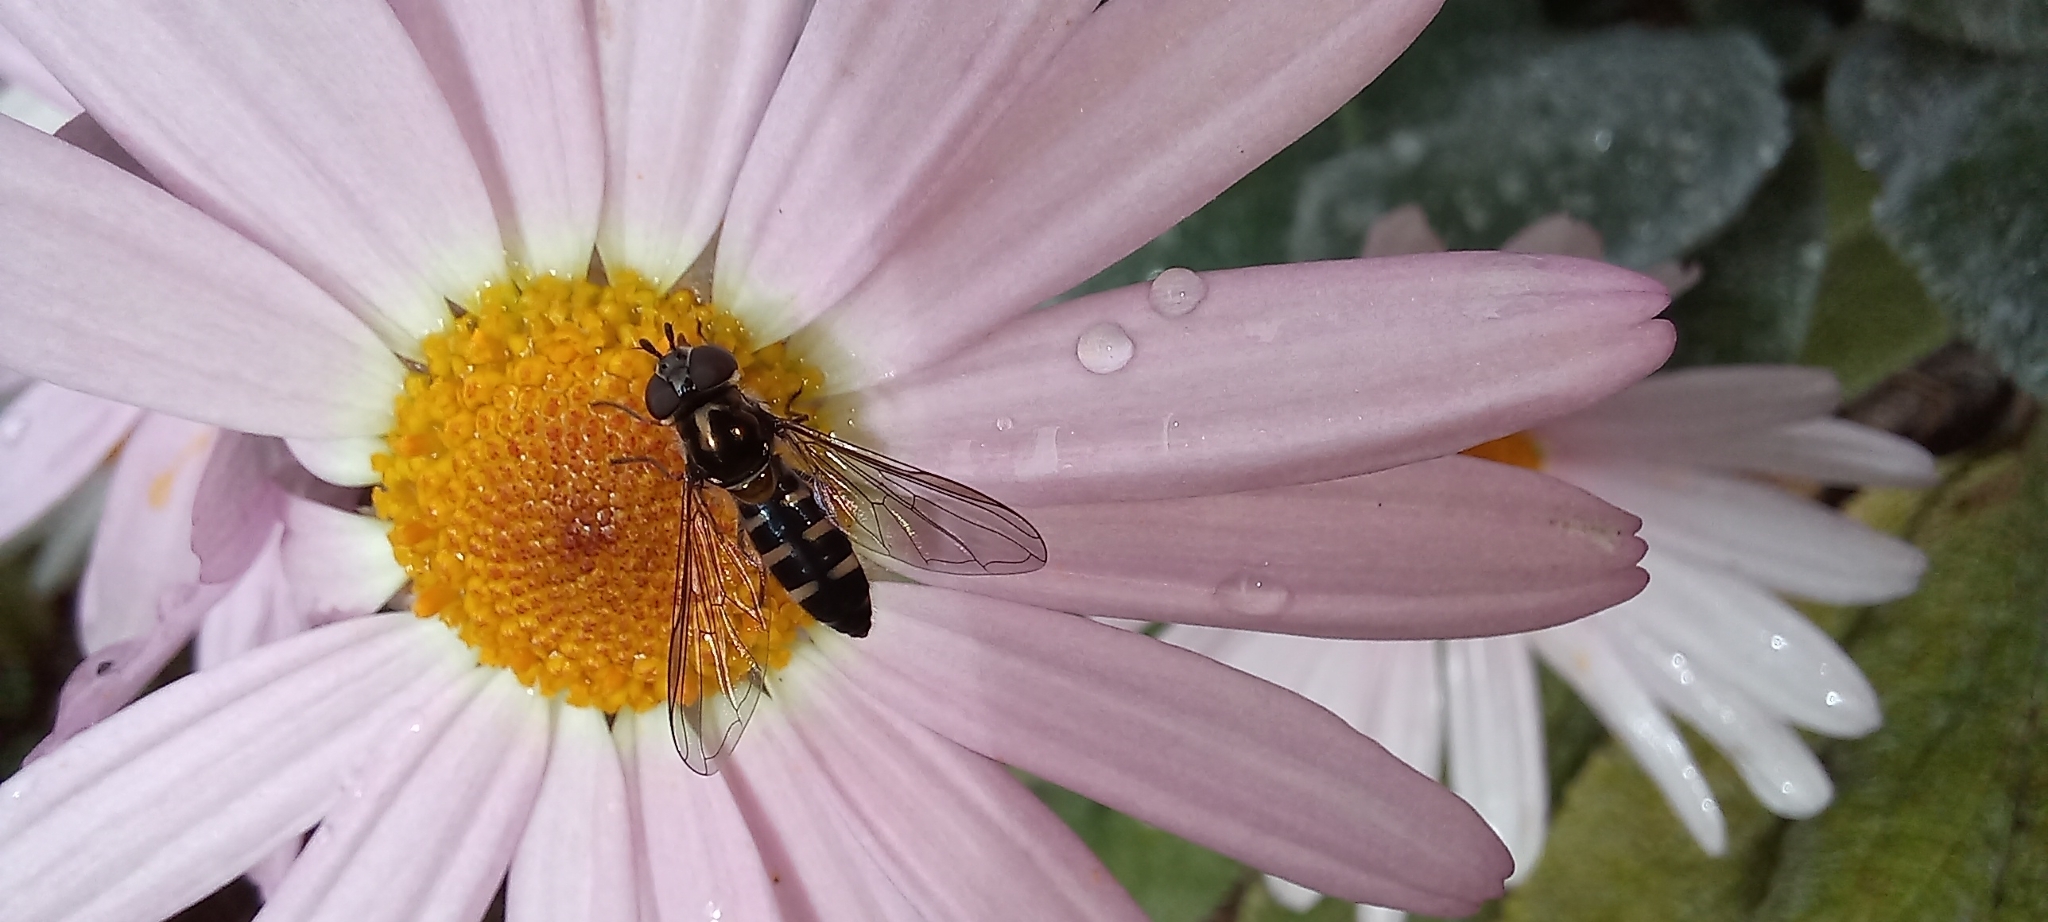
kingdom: Animalia
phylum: Arthropoda
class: Insecta
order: Diptera
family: Syrphidae
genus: Melangyna
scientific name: Melangyna novaezelandiae
